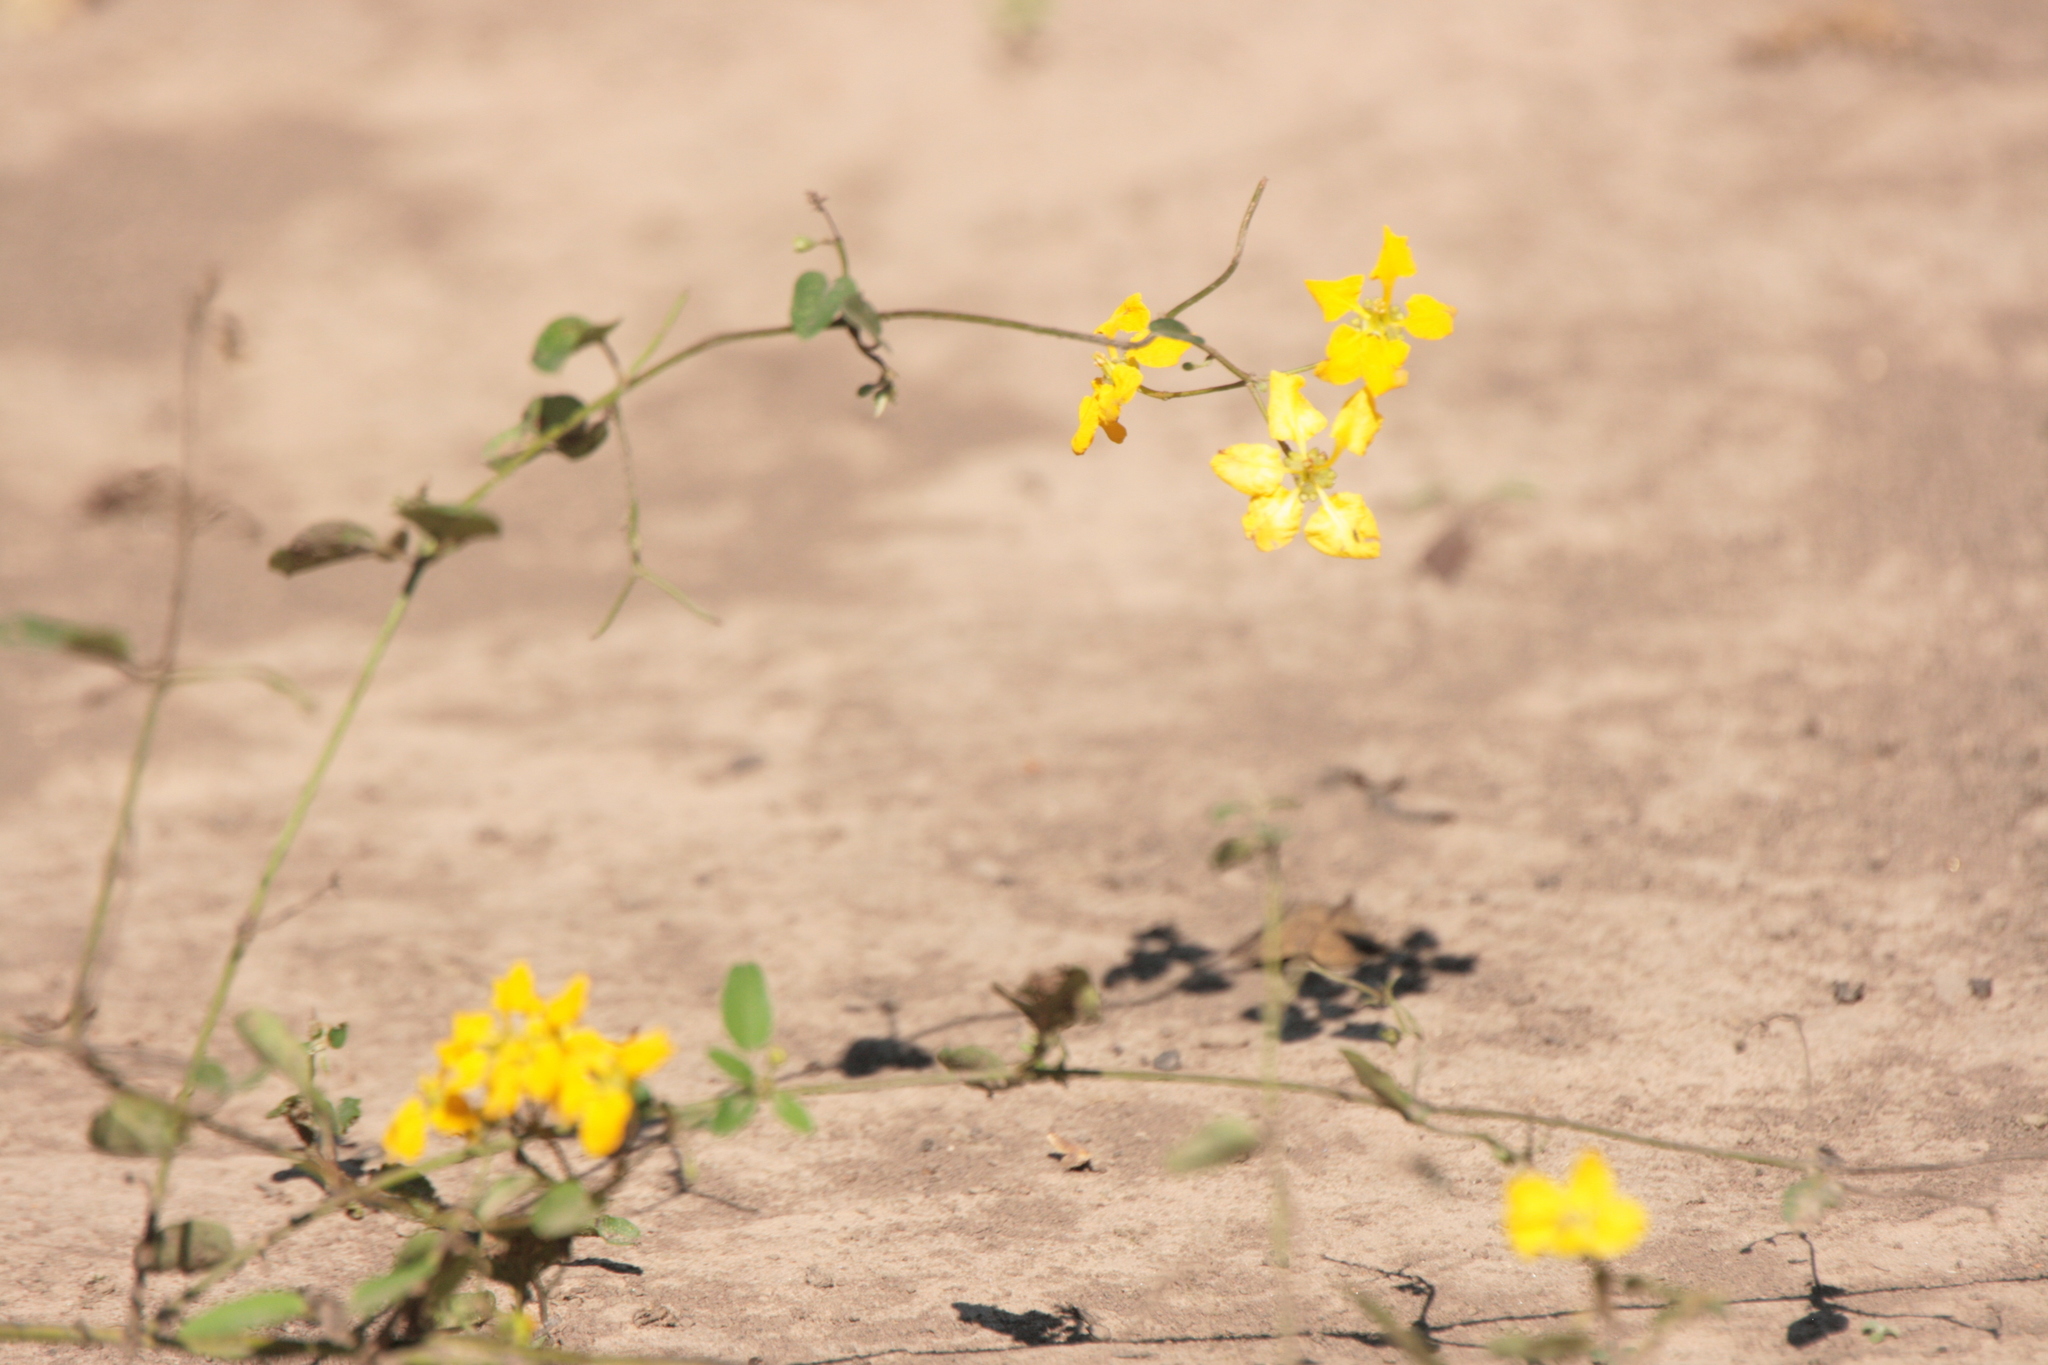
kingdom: Plantae
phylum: Tracheophyta
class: Magnoliopsida
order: Malpighiales
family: Malpighiaceae
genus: Janusia
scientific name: Janusia guaranitica
